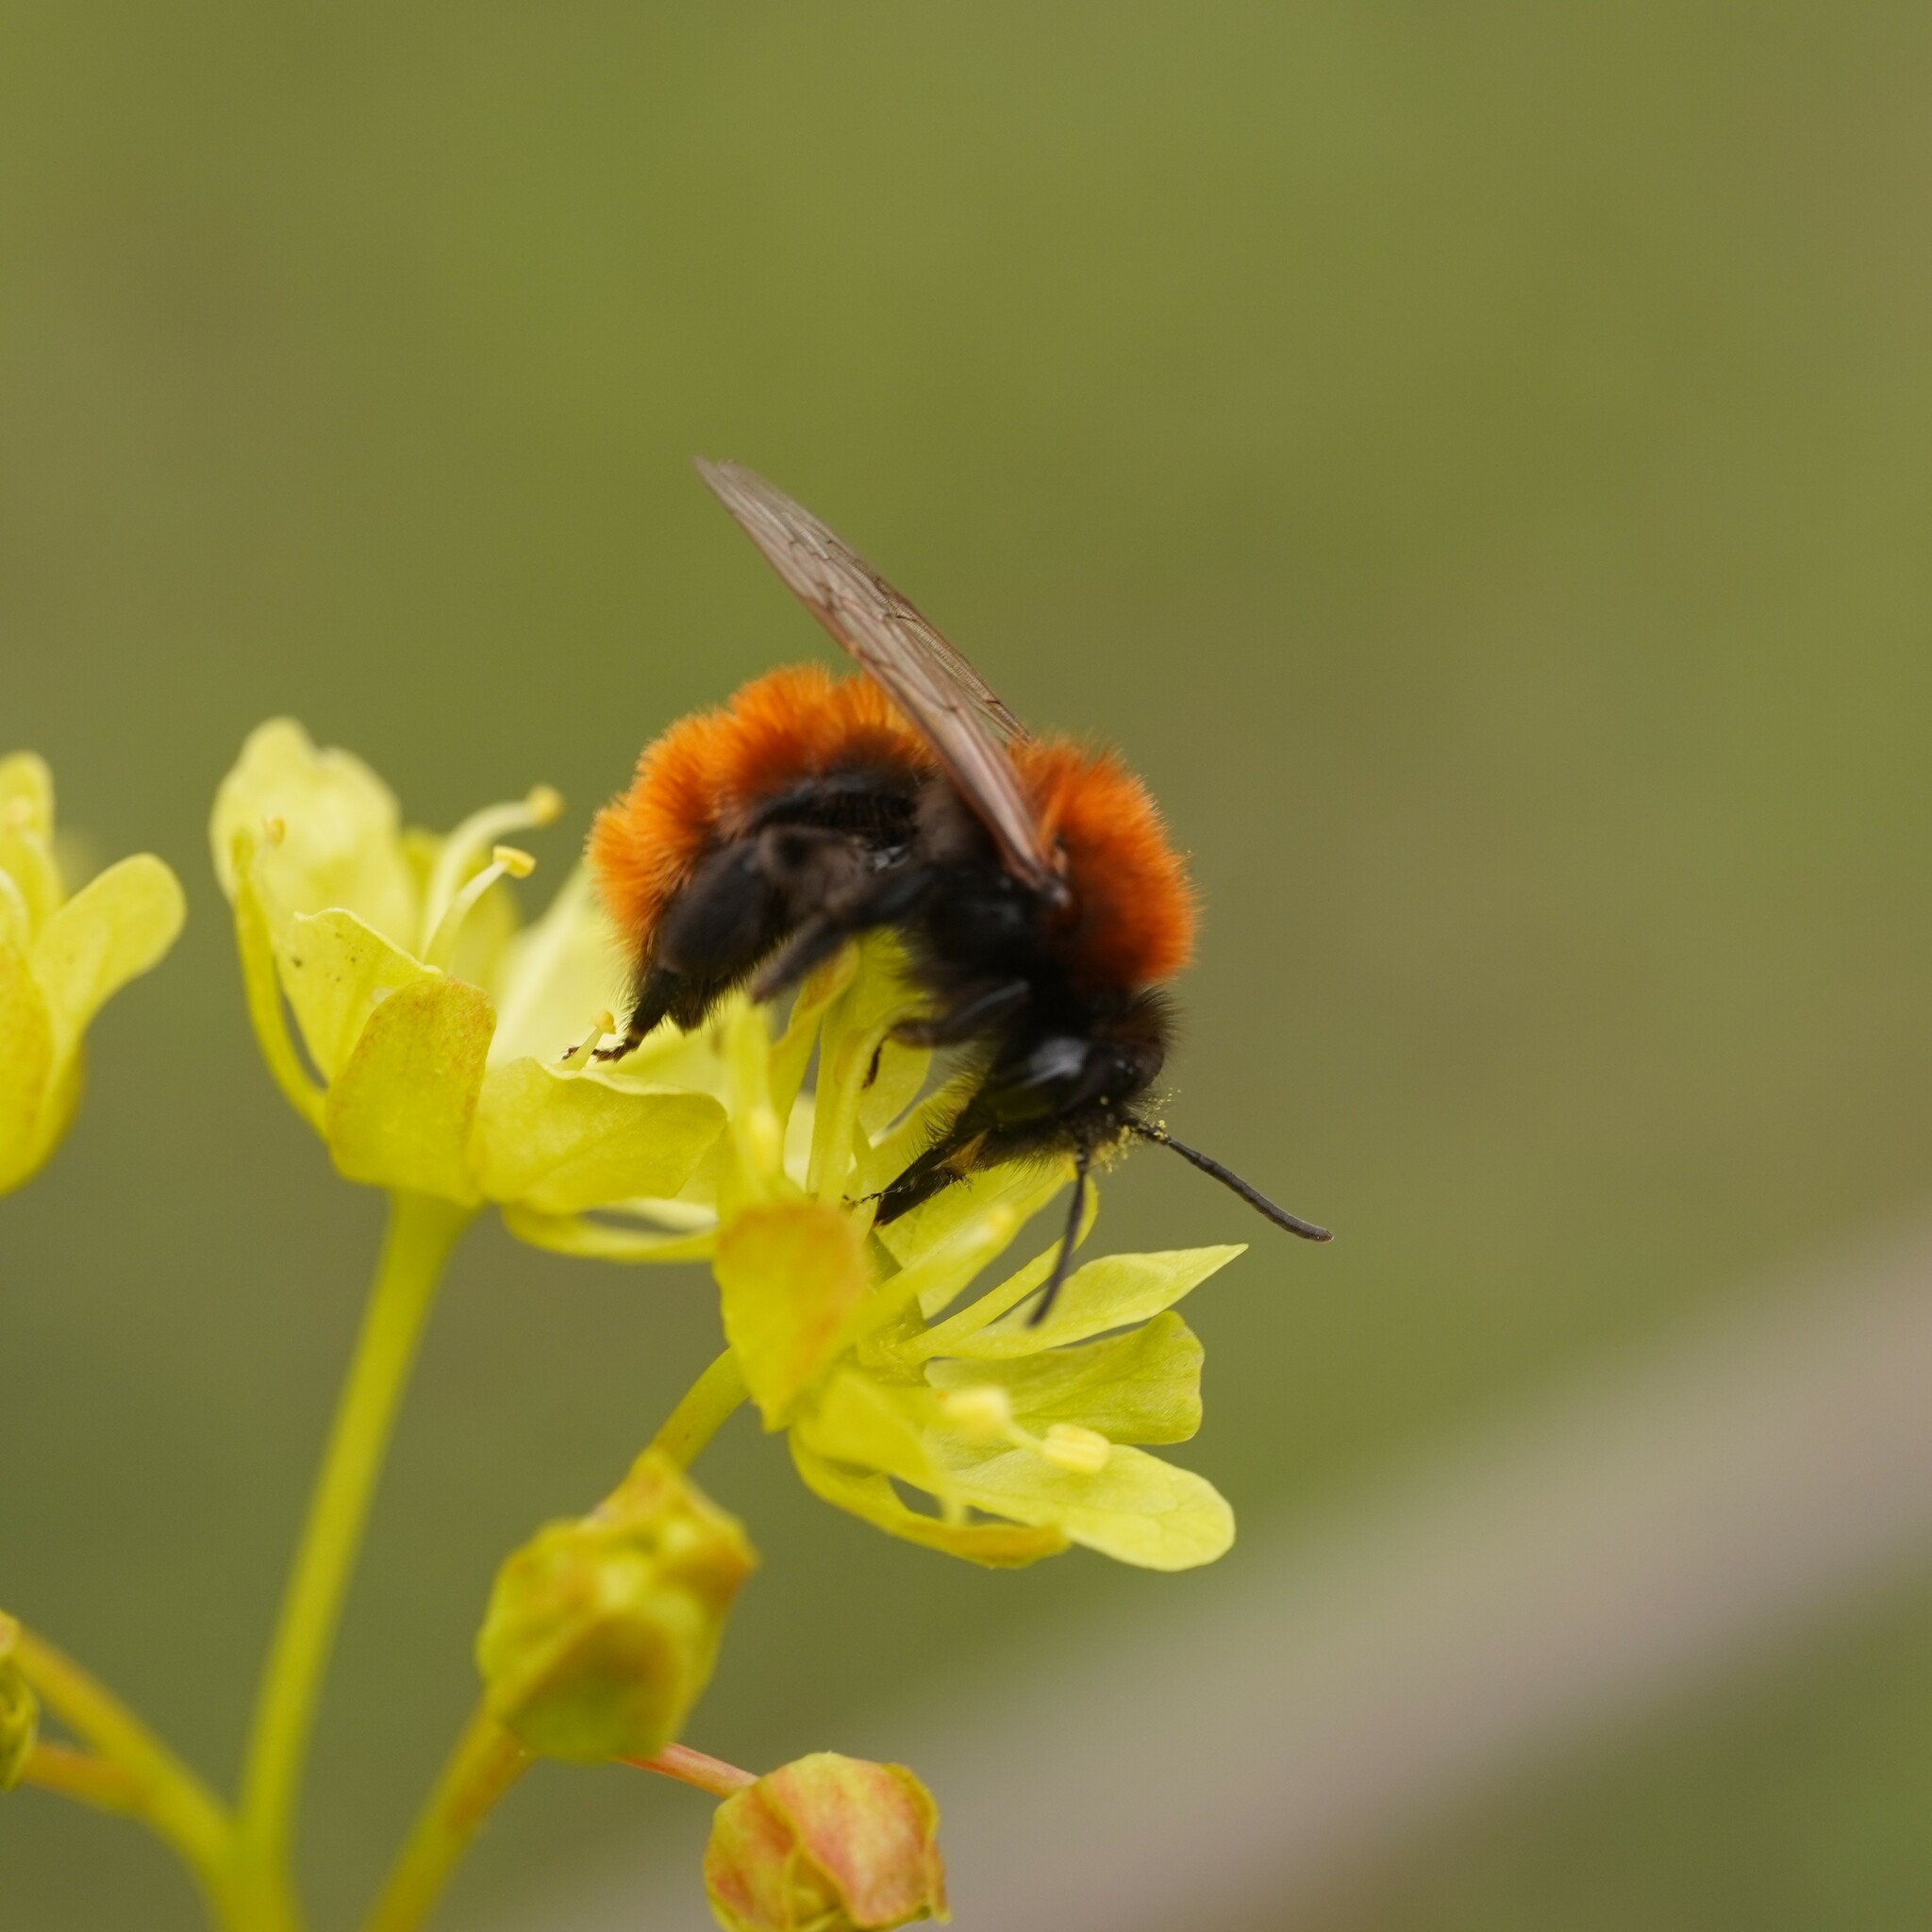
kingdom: Animalia
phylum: Arthropoda
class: Insecta
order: Hymenoptera
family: Andrenidae
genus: Andrena
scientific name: Andrena fulva
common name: Tawny mining bee
